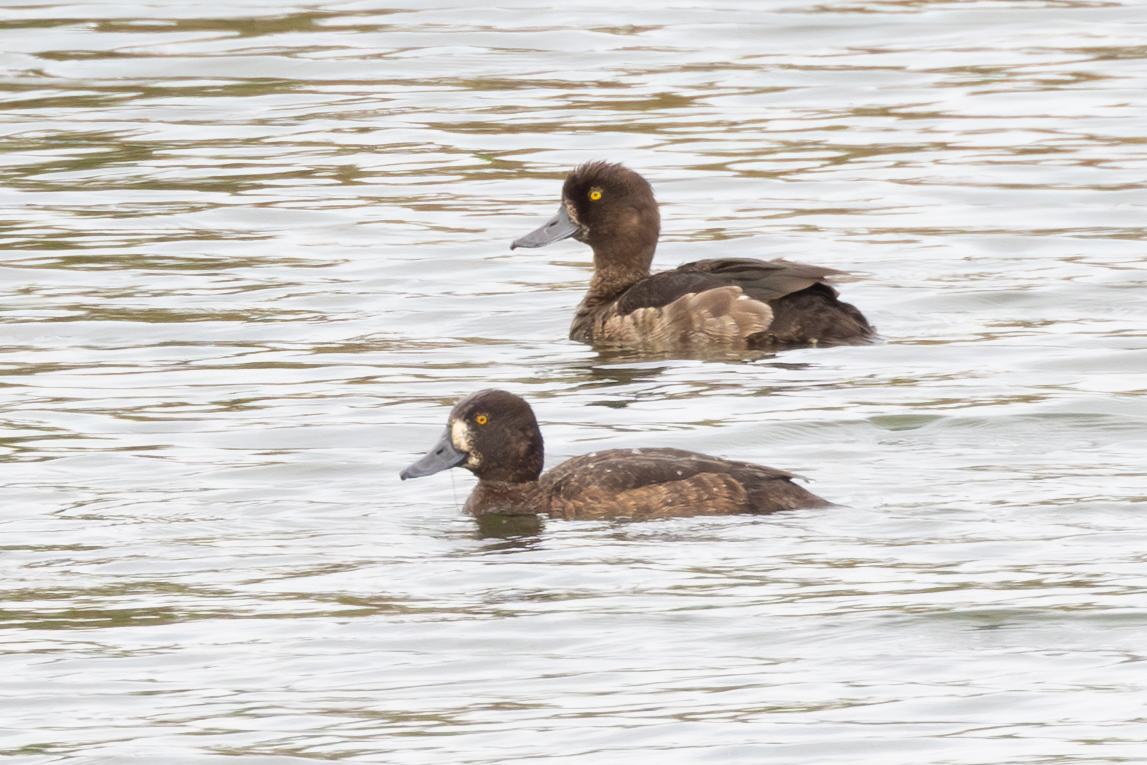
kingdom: Animalia
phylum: Chordata
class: Aves
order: Anseriformes
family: Anatidae
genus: Aythya
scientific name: Aythya fuligula
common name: Tufted duck
